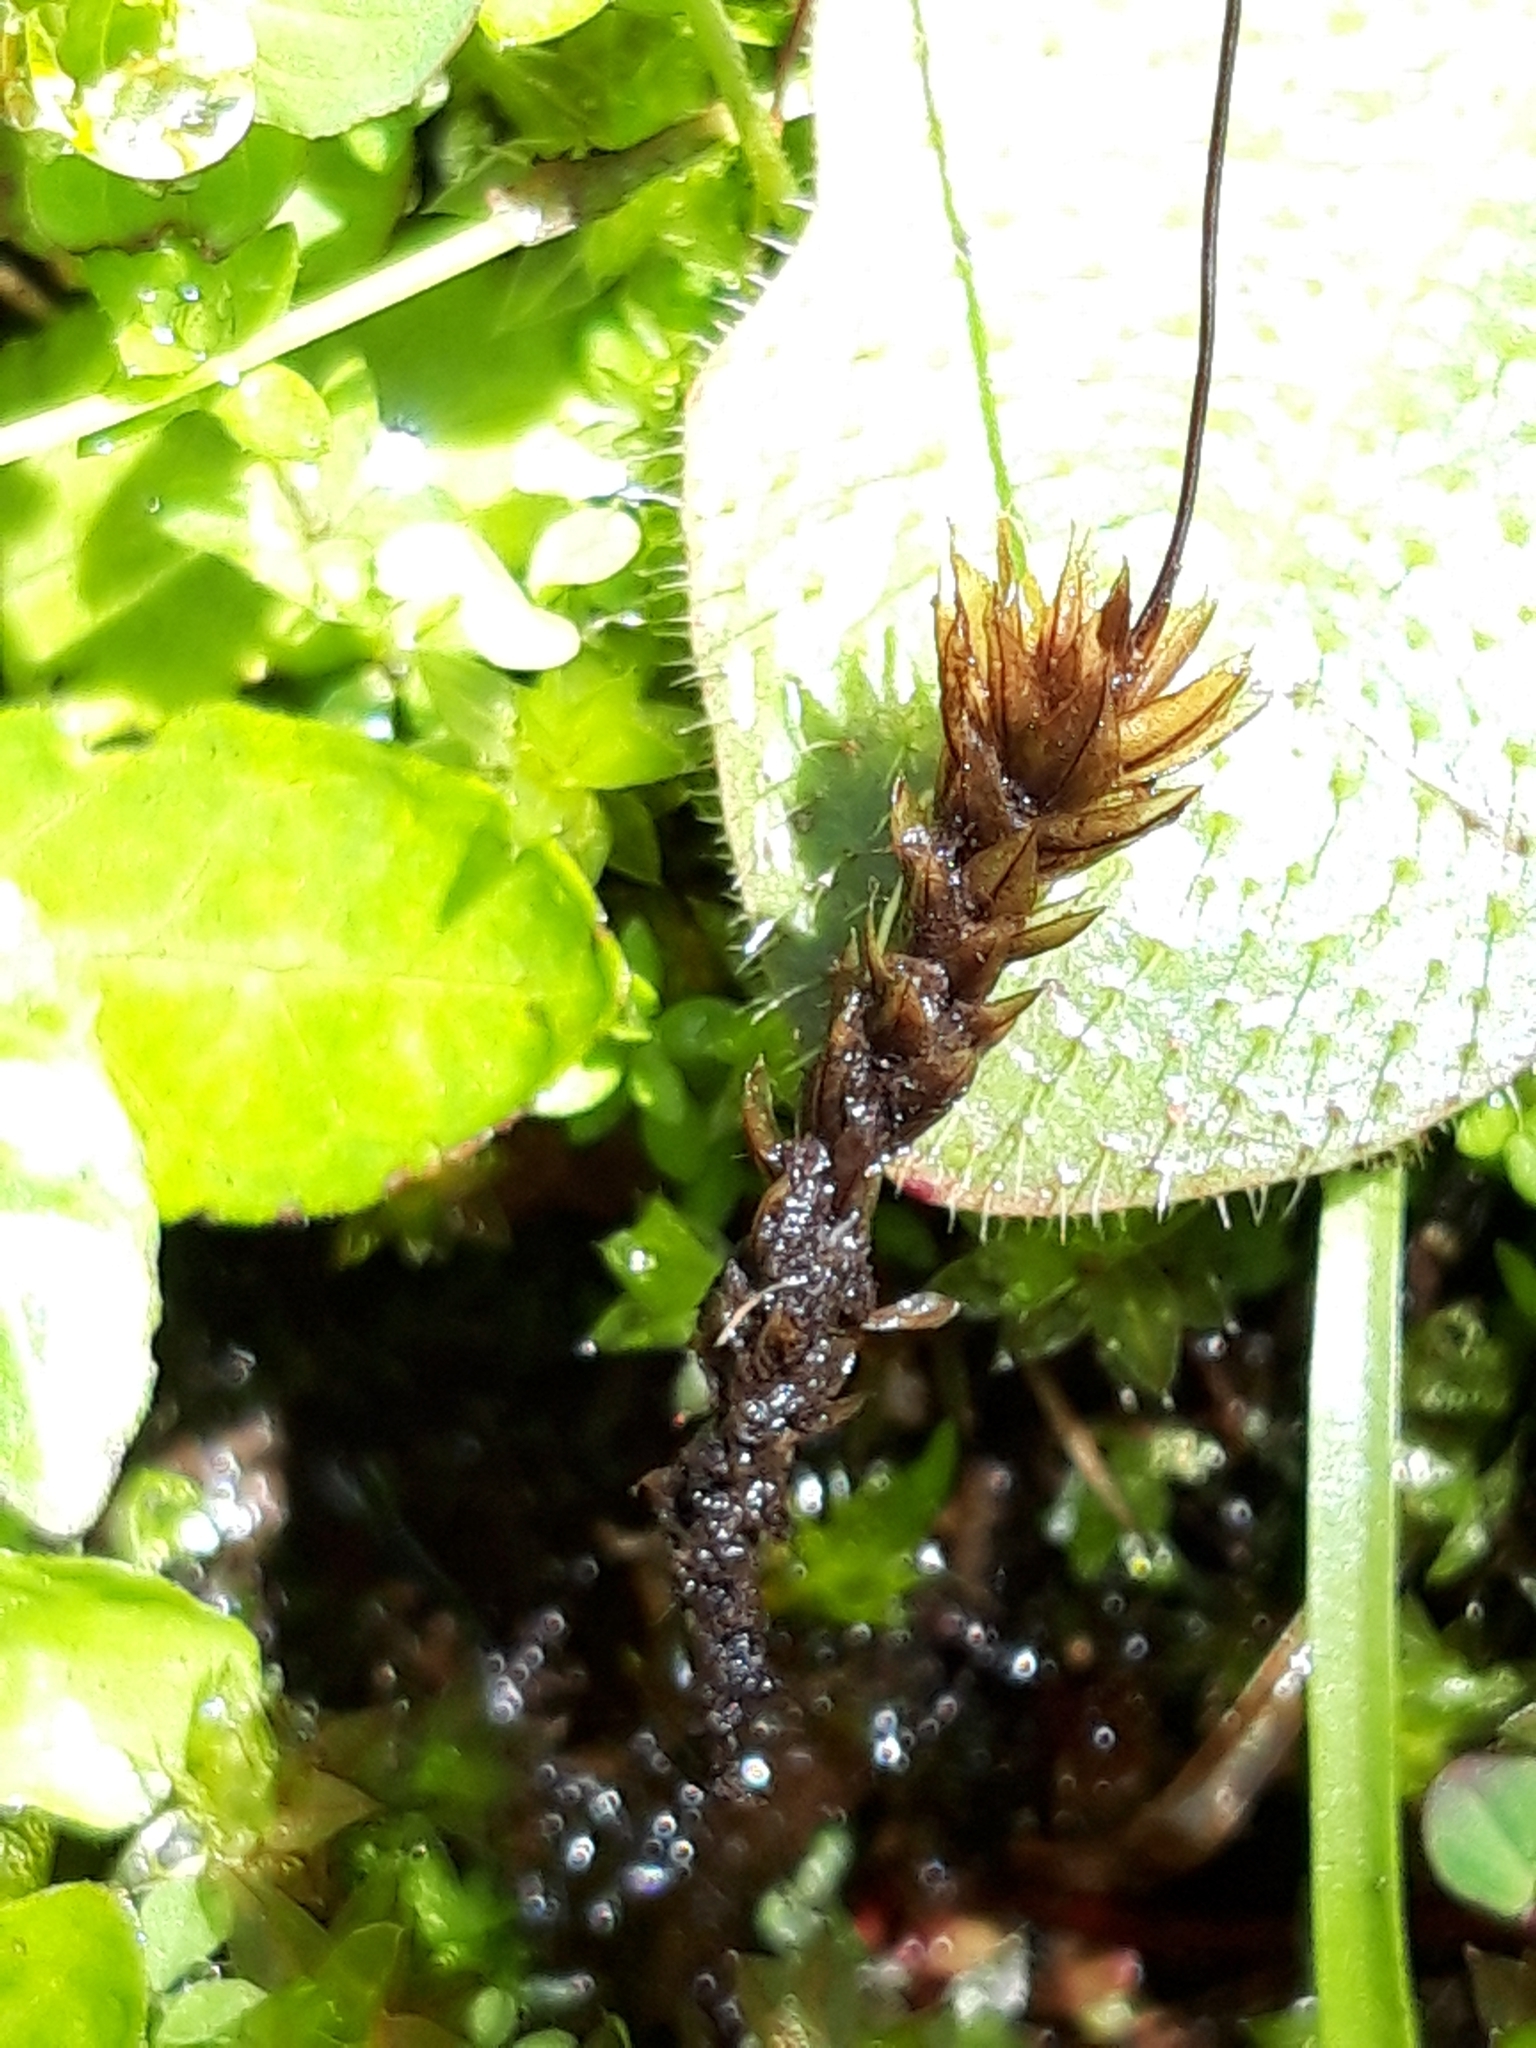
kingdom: Plantae
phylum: Bryophyta
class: Bryopsida
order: Bryales
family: Bryaceae
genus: Ptychostomum
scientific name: Ptychostomum pseudotriquetrum
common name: Long-leaved thread moss
